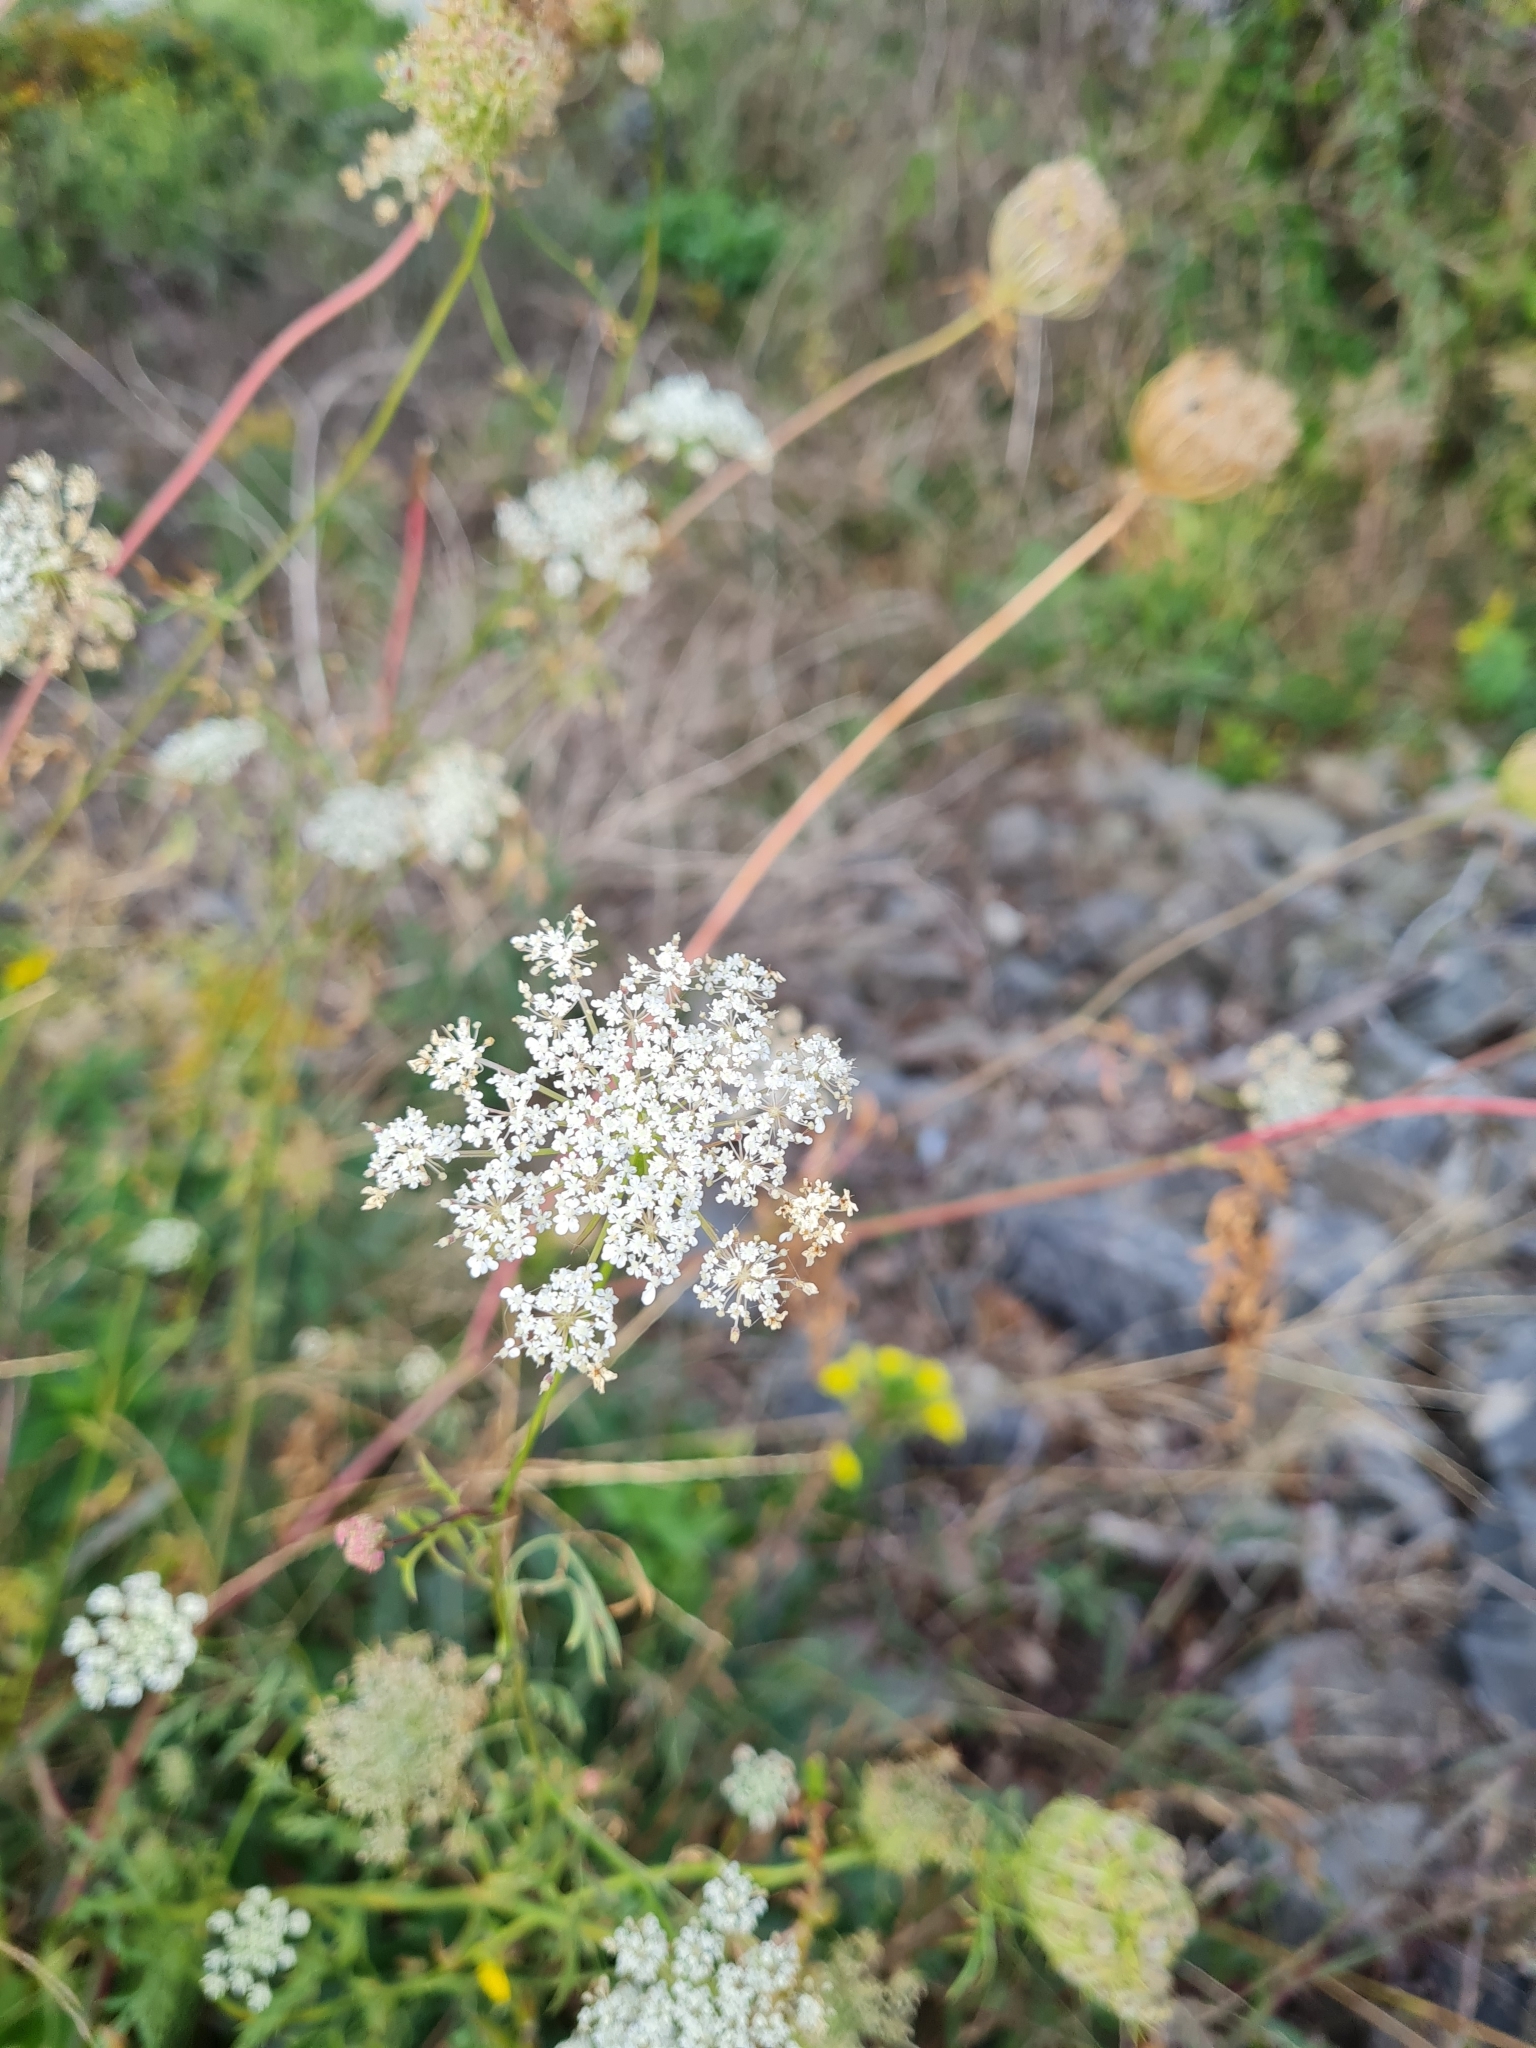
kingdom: Plantae
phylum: Tracheophyta
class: Magnoliopsida
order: Apiales
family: Apiaceae
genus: Daucus
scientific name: Daucus carota
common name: Wild carrot
